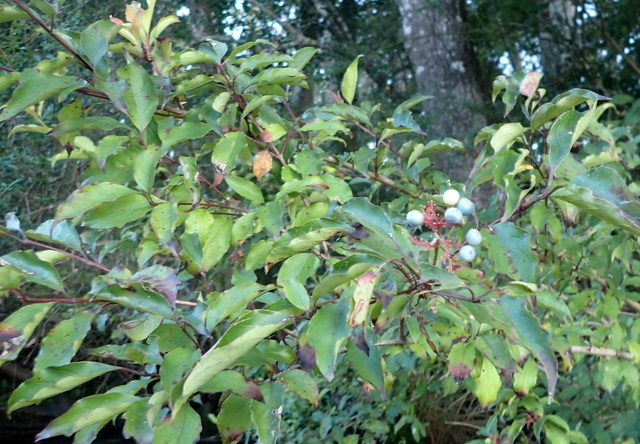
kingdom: Plantae
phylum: Tracheophyta
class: Magnoliopsida
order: Cornales
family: Cornaceae
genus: Cornus
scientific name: Cornus foemina
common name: Swamp dogwood
